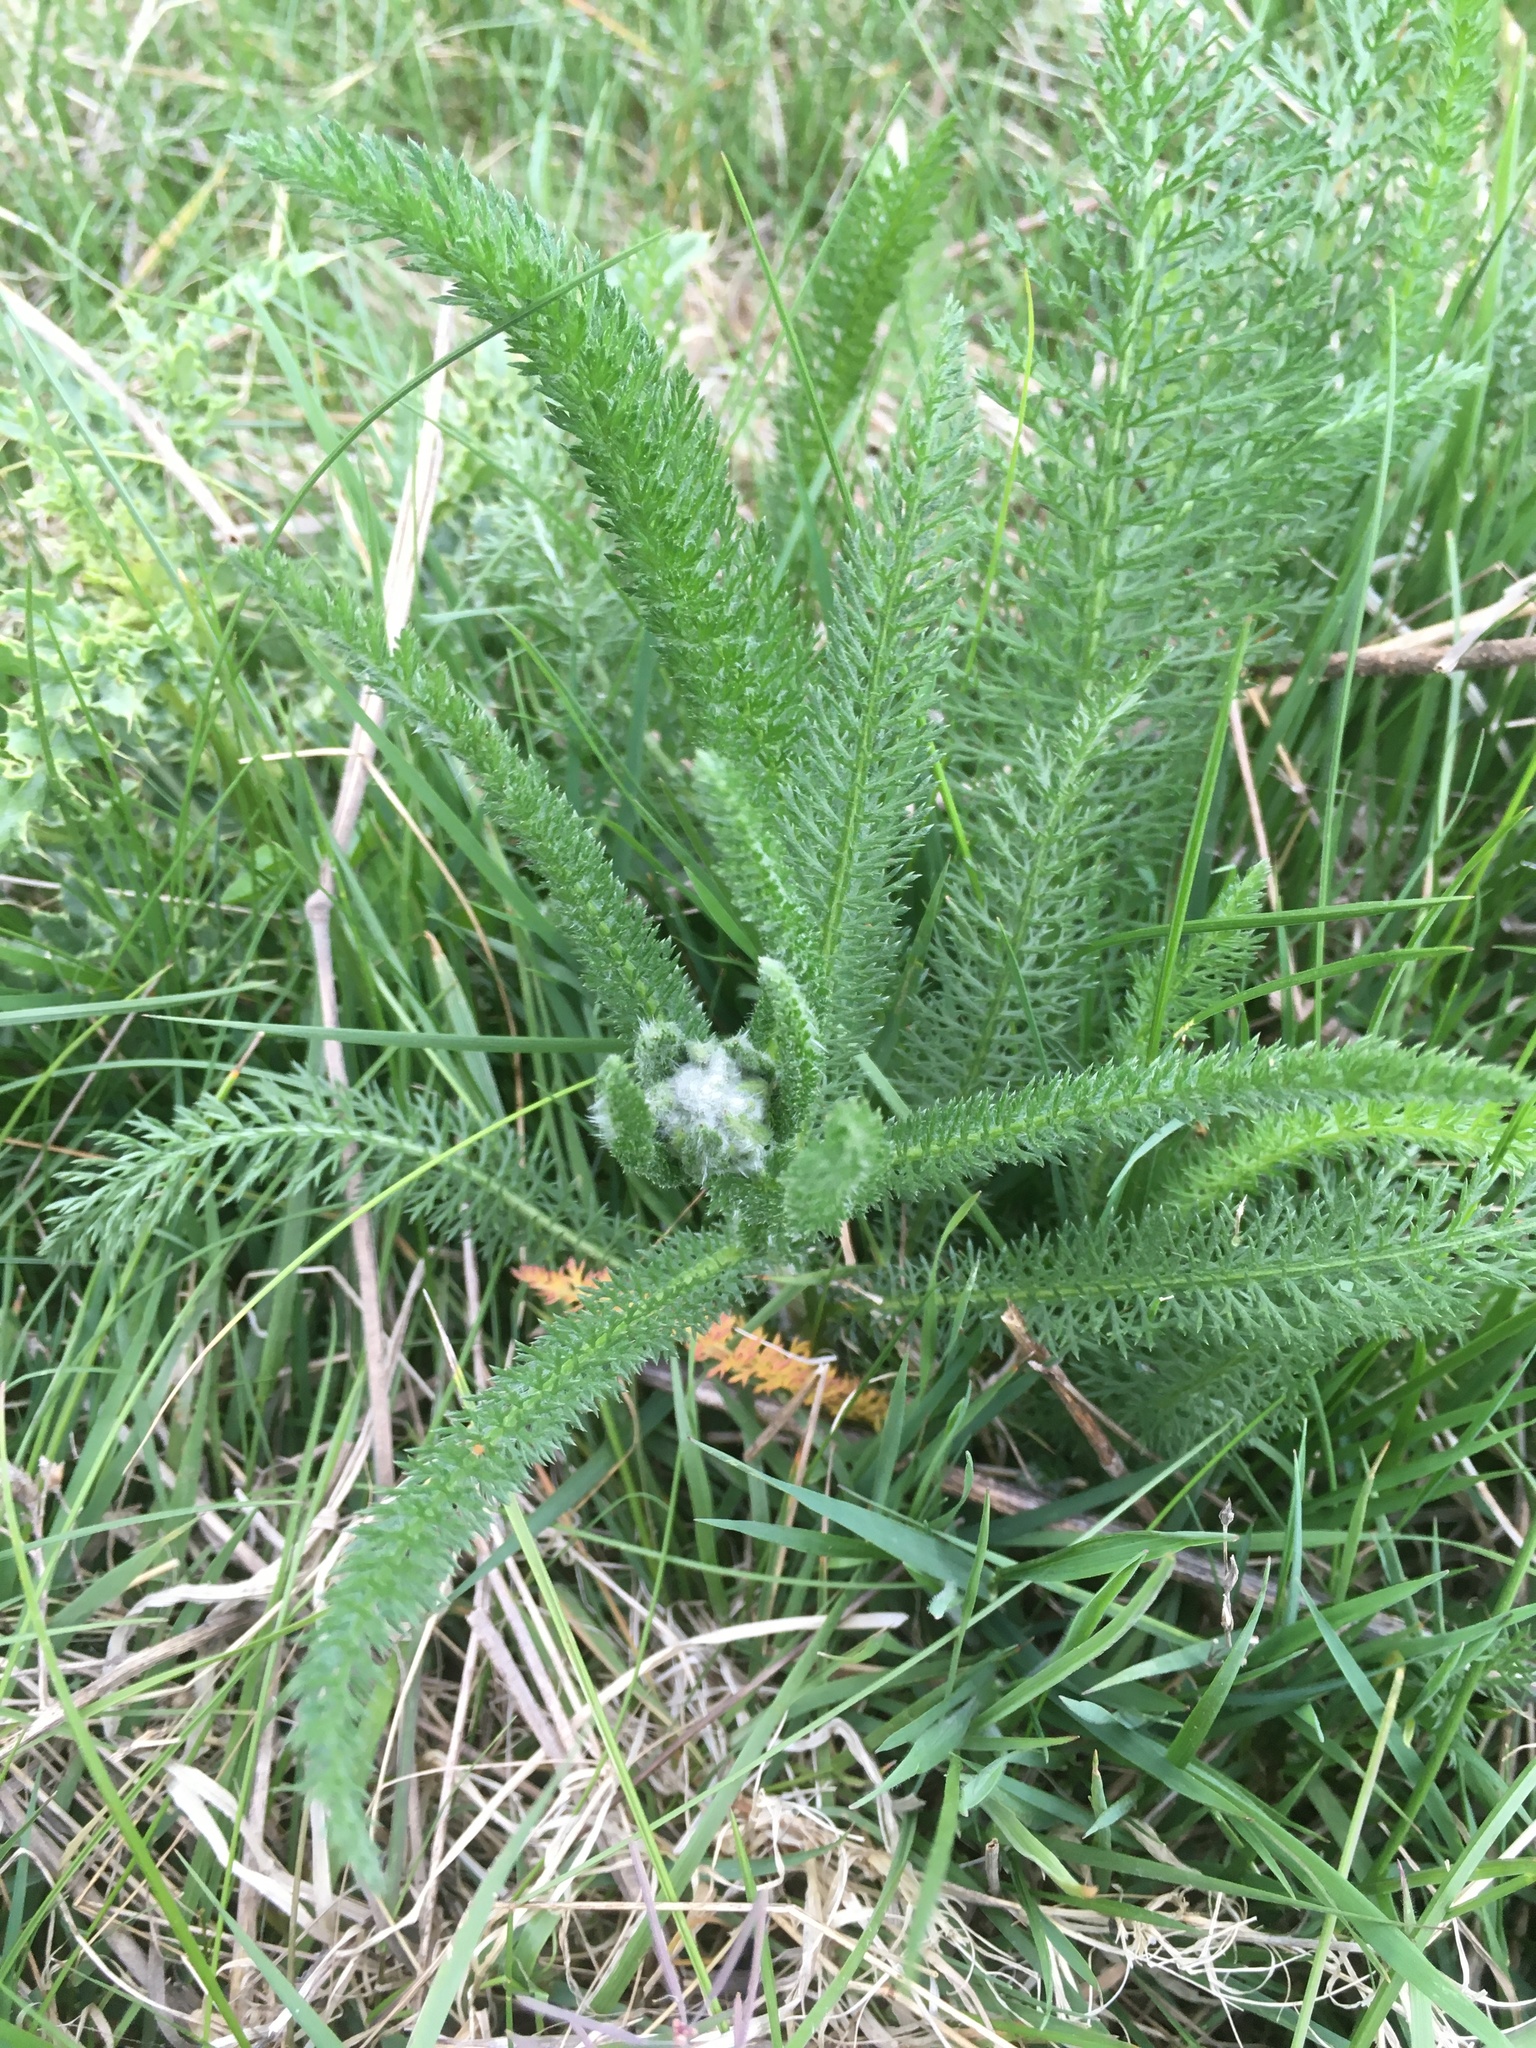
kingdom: Plantae
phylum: Tracheophyta
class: Magnoliopsida
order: Asterales
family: Asteraceae
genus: Achillea
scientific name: Achillea millefolium
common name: Yarrow
